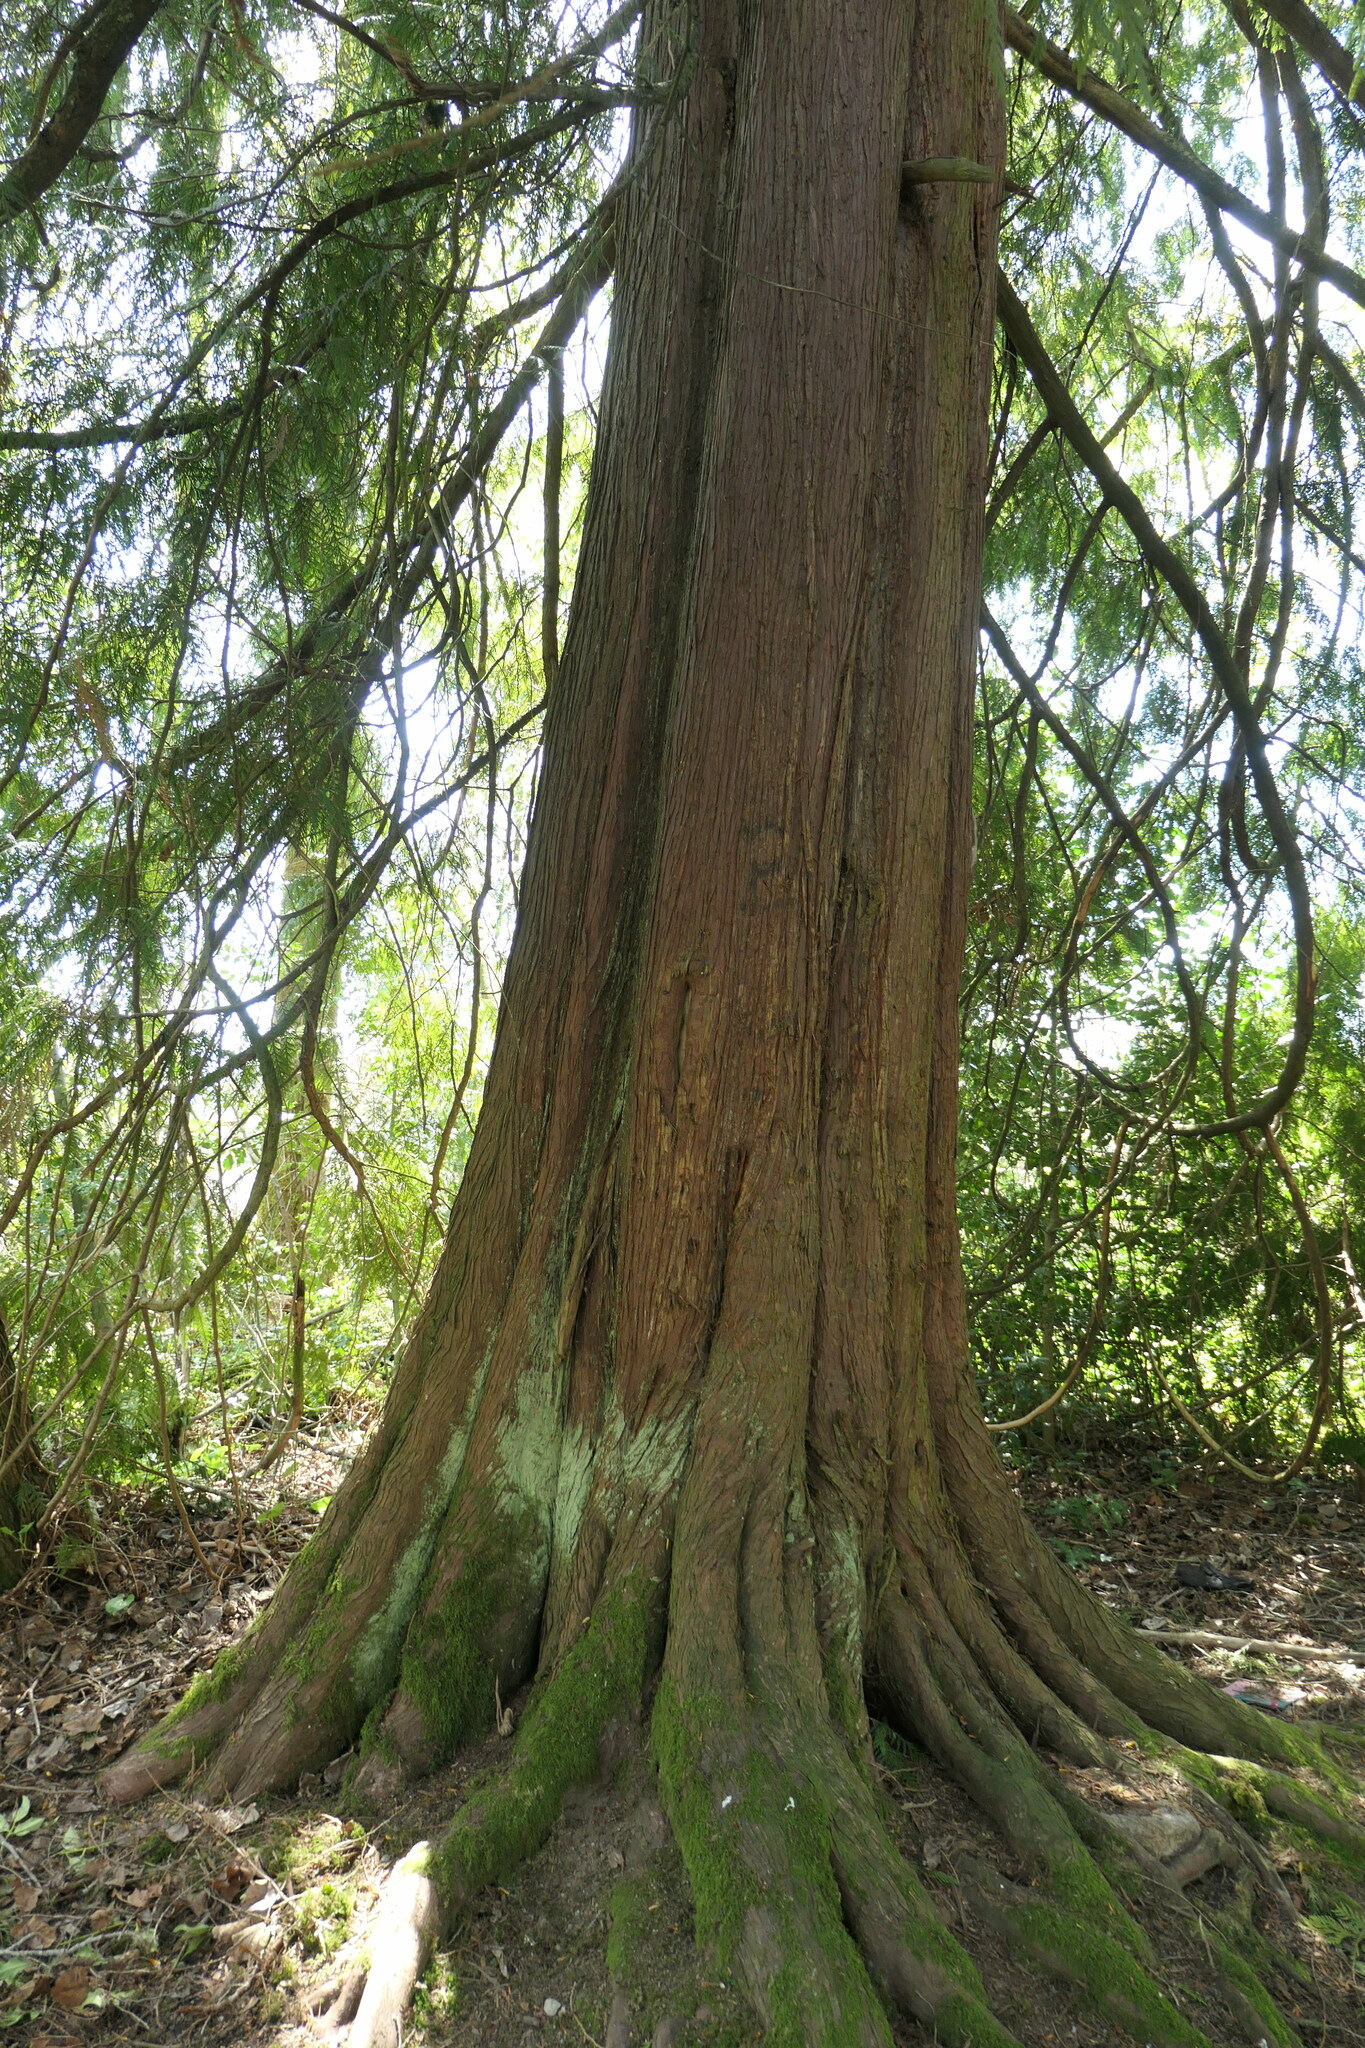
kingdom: Plantae
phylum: Tracheophyta
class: Pinopsida
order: Pinales
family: Cupressaceae
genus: Thuja
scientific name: Thuja plicata
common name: Western red-cedar
